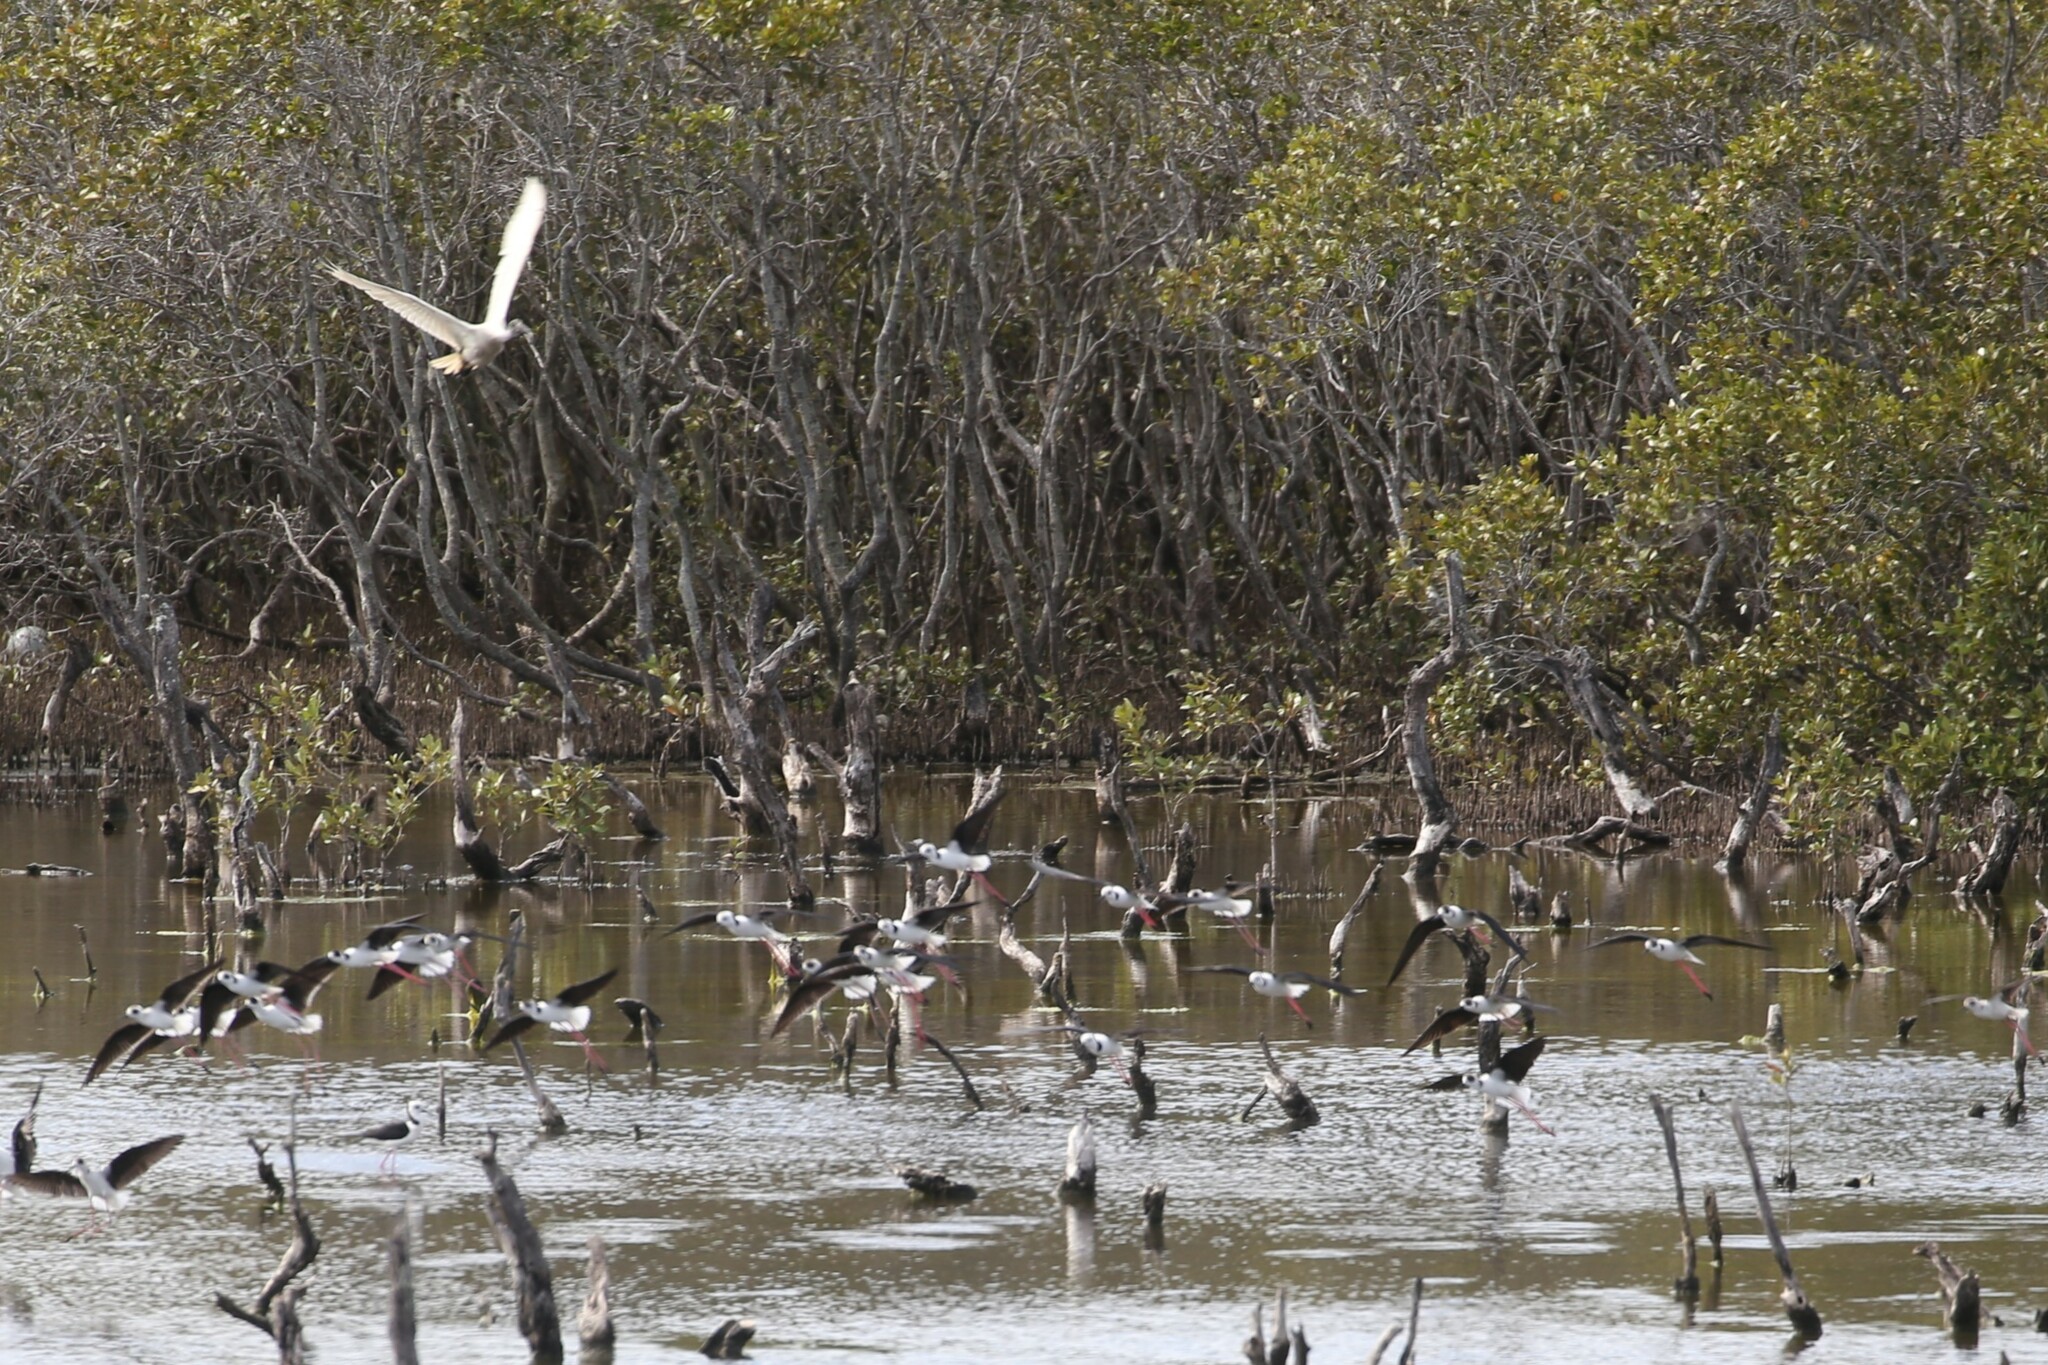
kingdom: Animalia
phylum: Chordata
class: Aves
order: Charadriiformes
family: Recurvirostridae
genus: Himantopus
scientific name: Himantopus leucocephalus
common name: White-headed stilt
